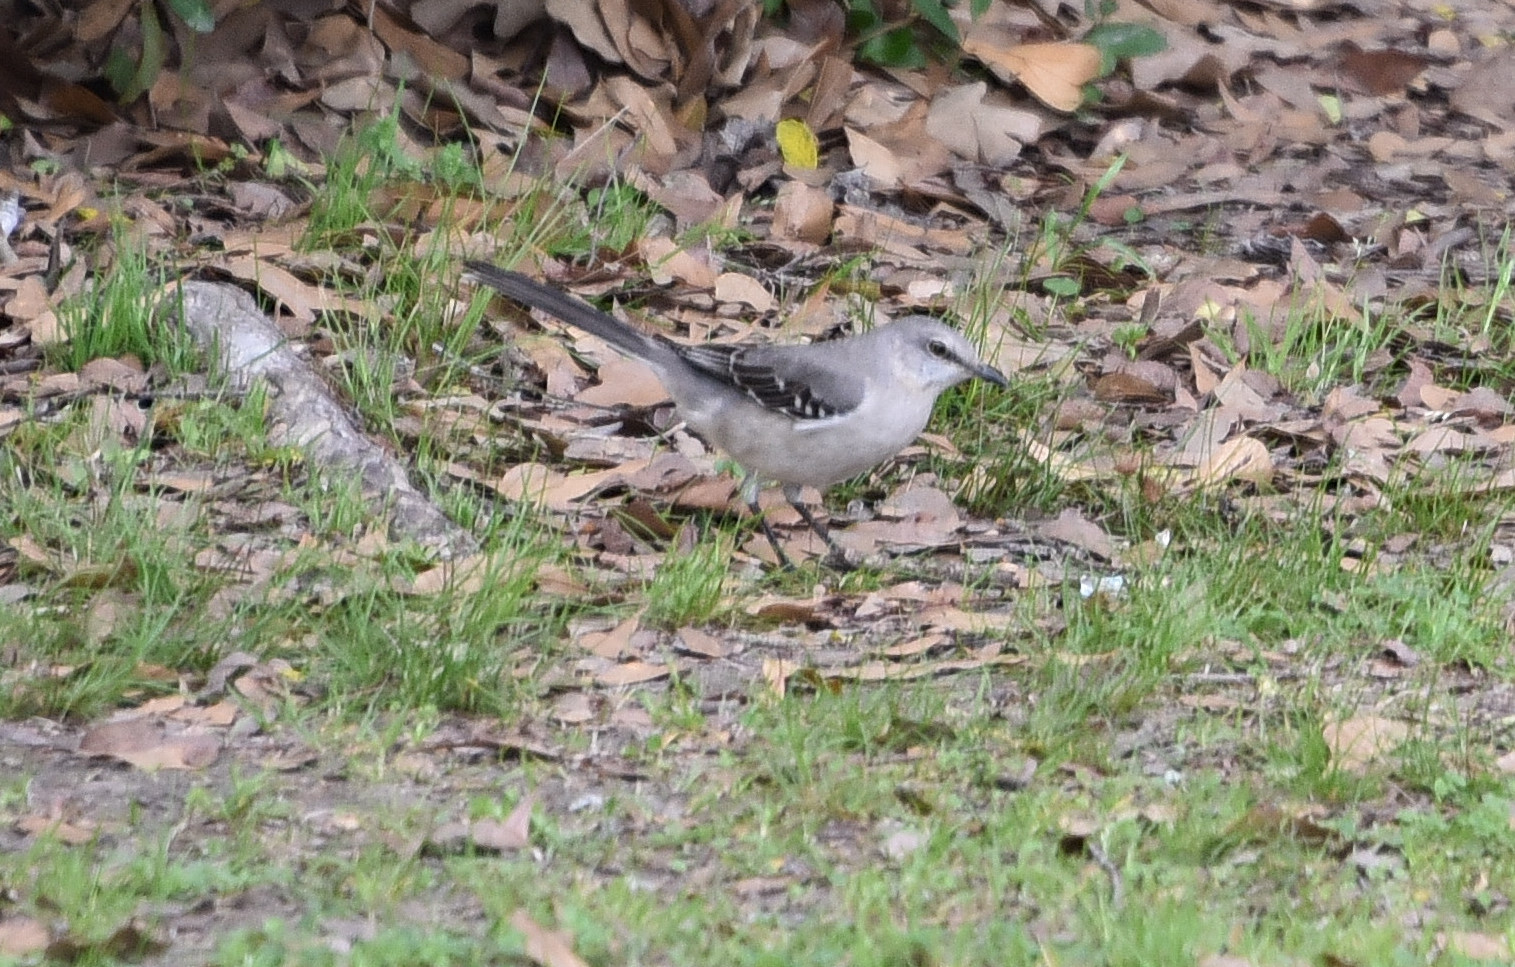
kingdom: Animalia
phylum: Chordata
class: Aves
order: Passeriformes
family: Mimidae
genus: Mimus
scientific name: Mimus polyglottos
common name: Northern mockingbird
